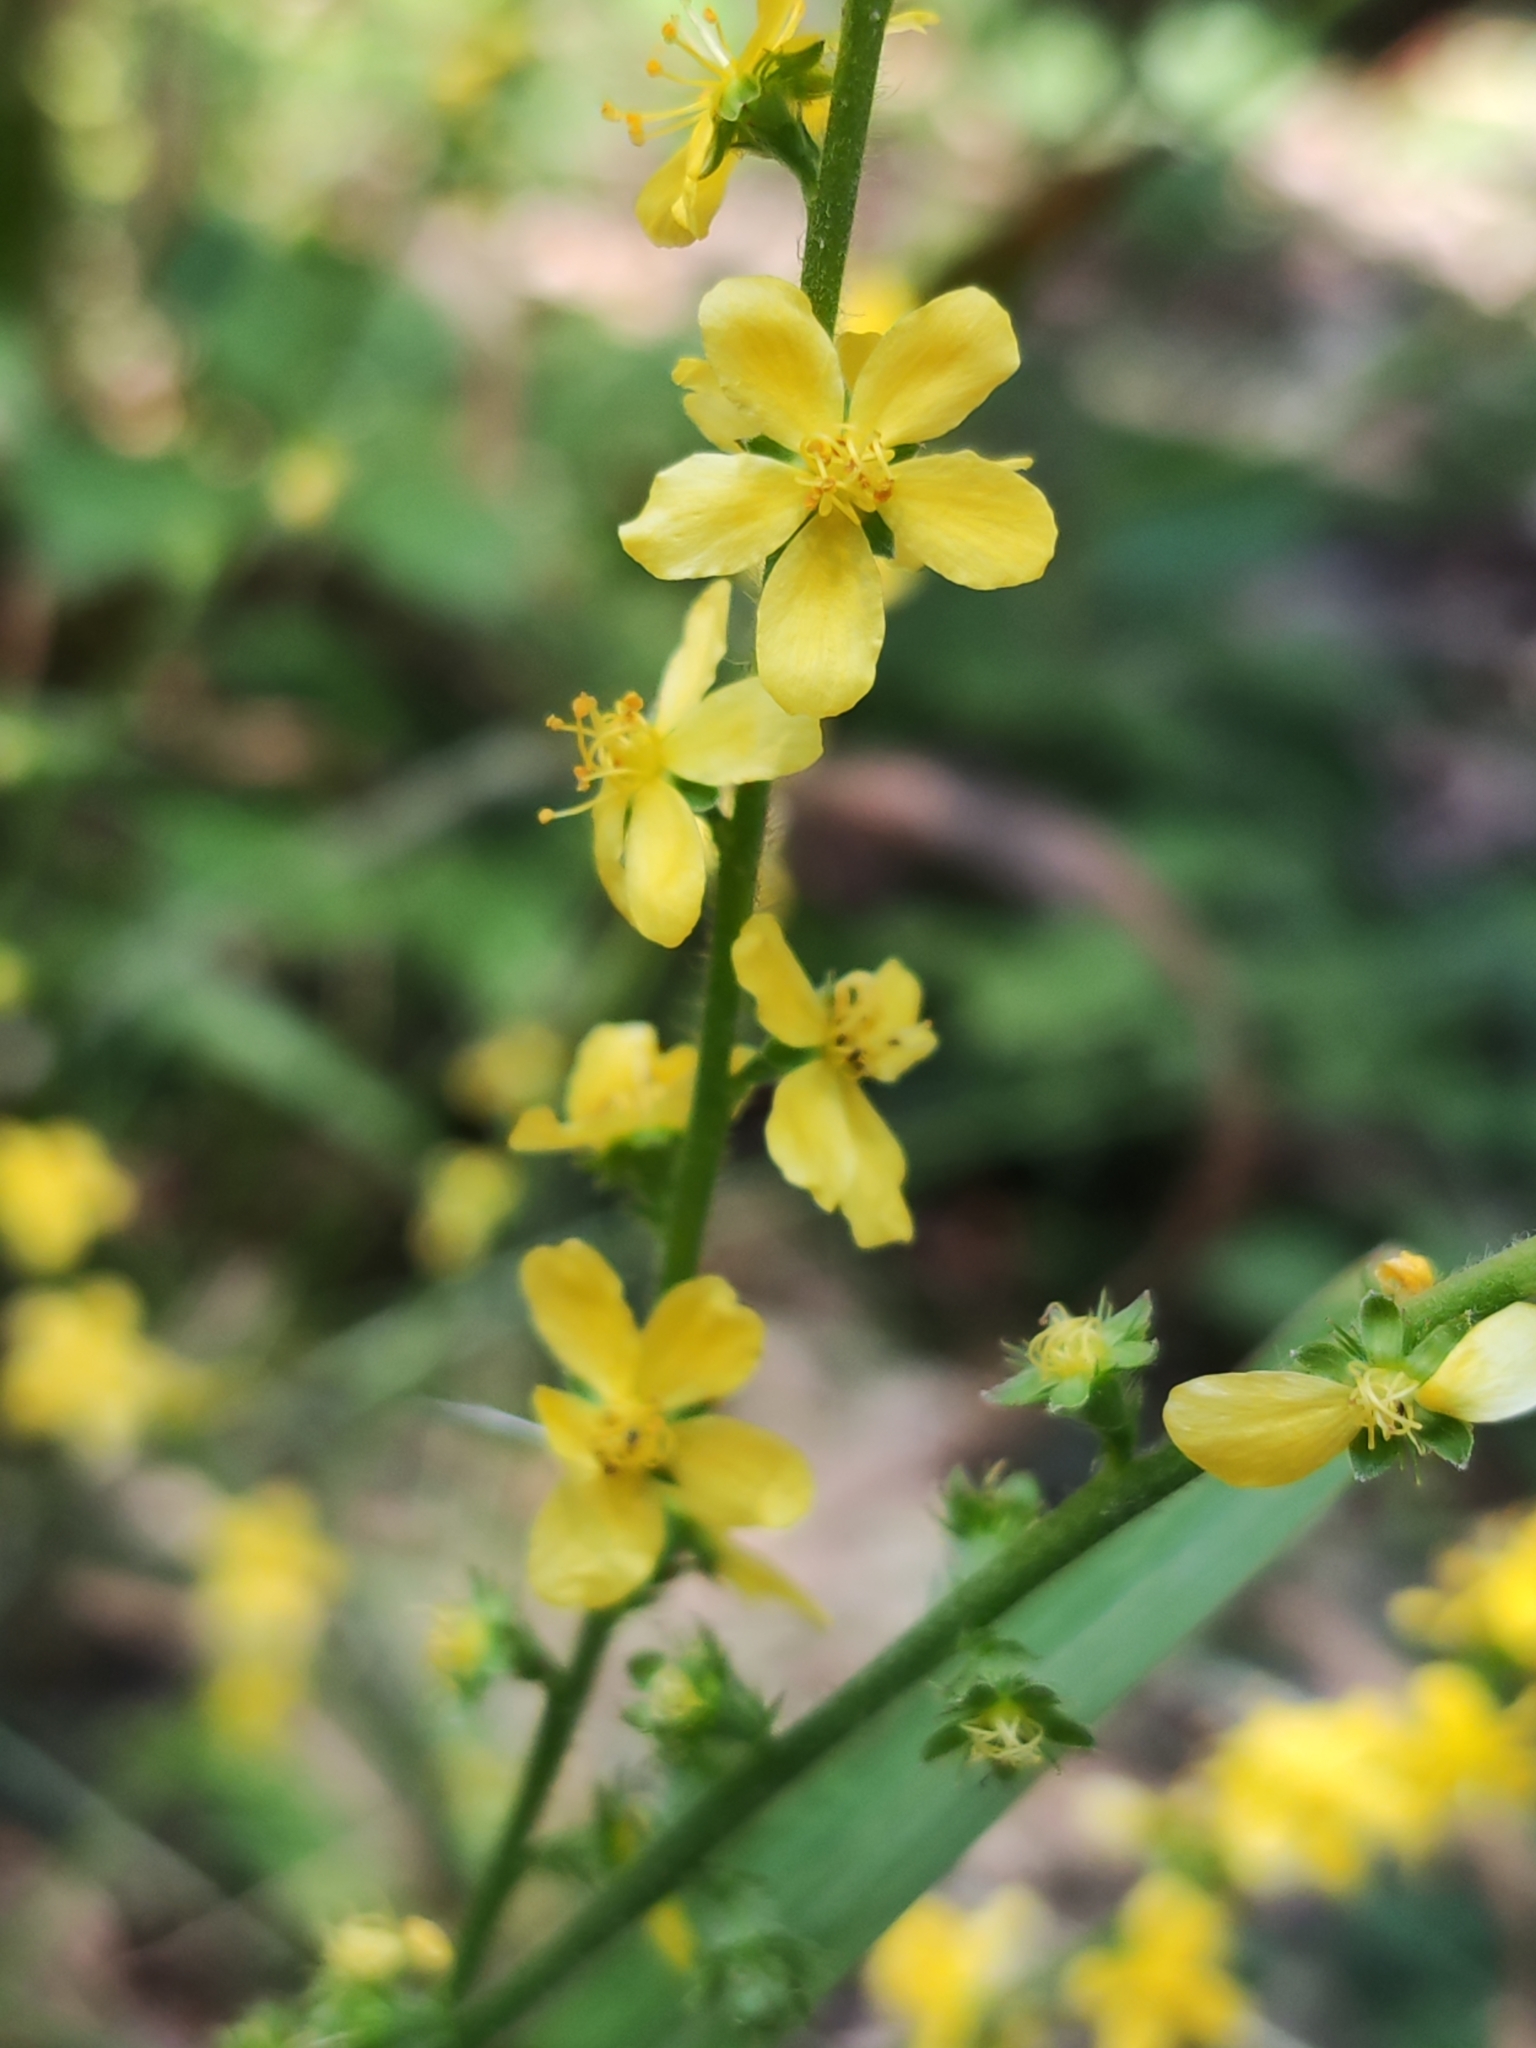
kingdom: Plantae
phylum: Tracheophyta
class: Magnoliopsida
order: Rosales
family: Rosaceae
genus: Agrimonia
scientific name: Agrimonia eupatoria
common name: Agrimony
